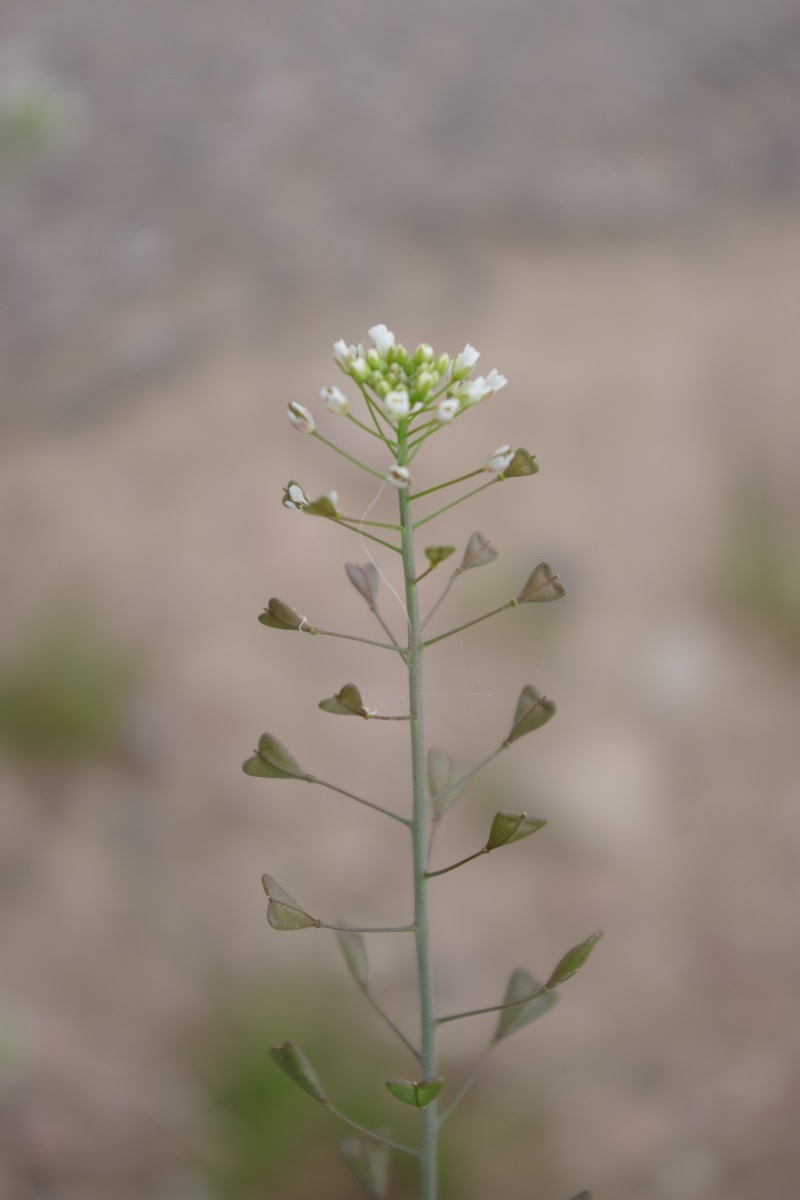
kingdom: Plantae
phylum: Tracheophyta
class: Magnoliopsida
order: Brassicales
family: Brassicaceae
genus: Capsella
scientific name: Capsella bursa-pastoris
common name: Shepherd's purse
